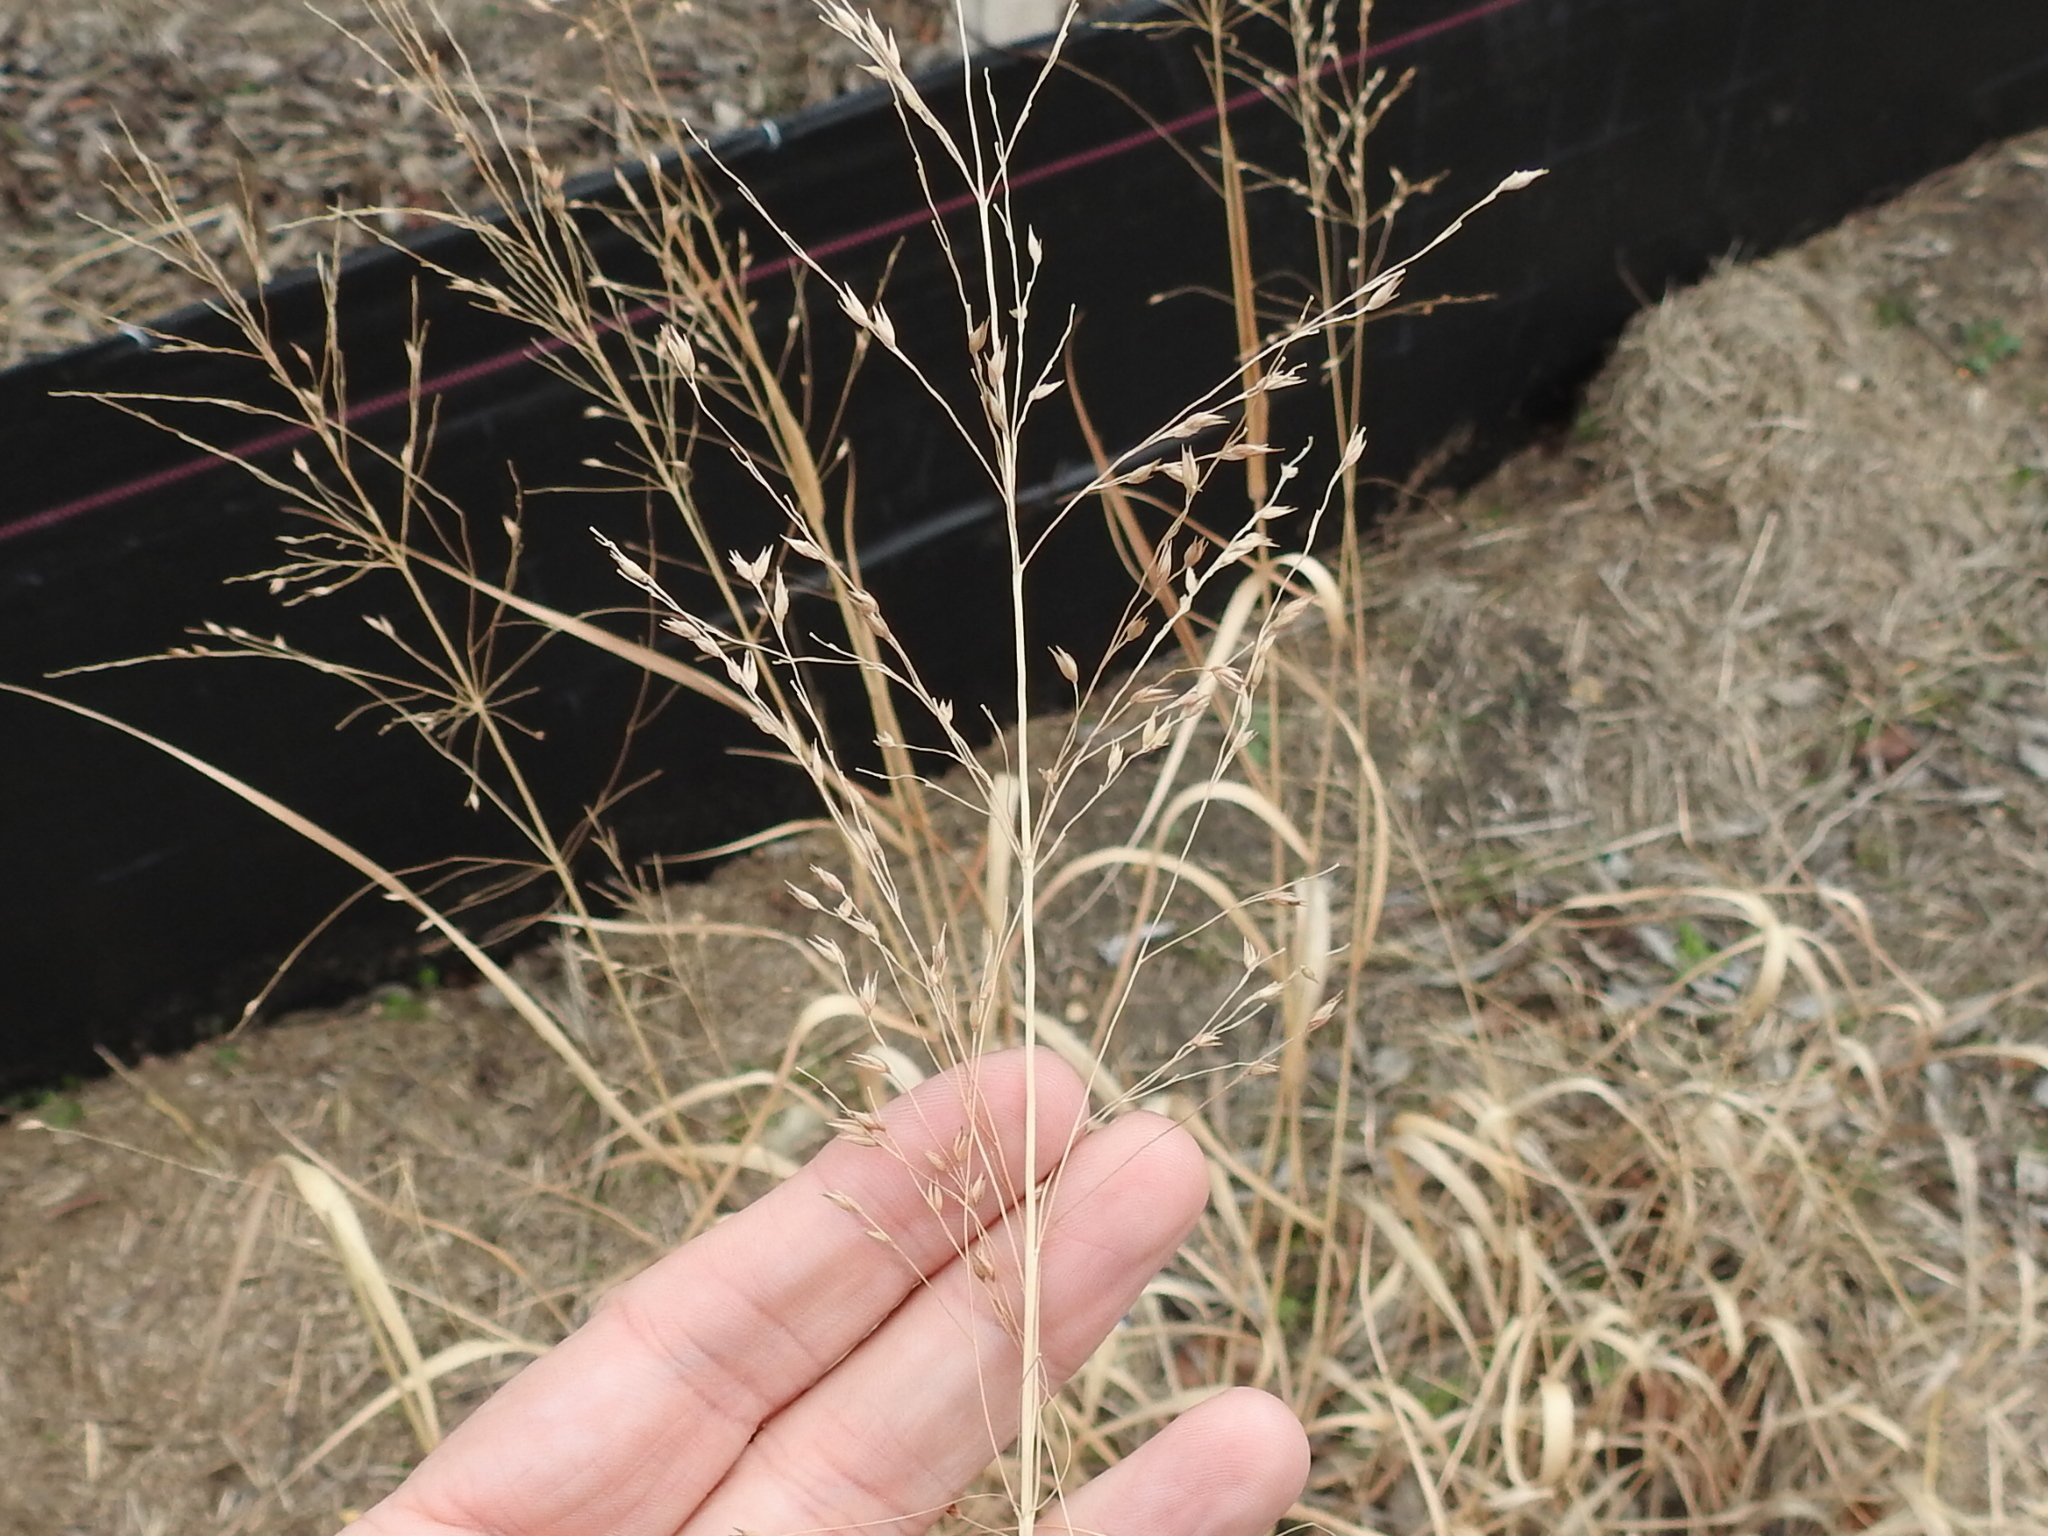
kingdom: Plantae
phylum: Tracheophyta
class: Liliopsida
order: Poales
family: Poaceae
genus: Panicum
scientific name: Panicum virgatum
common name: Switchgrass
